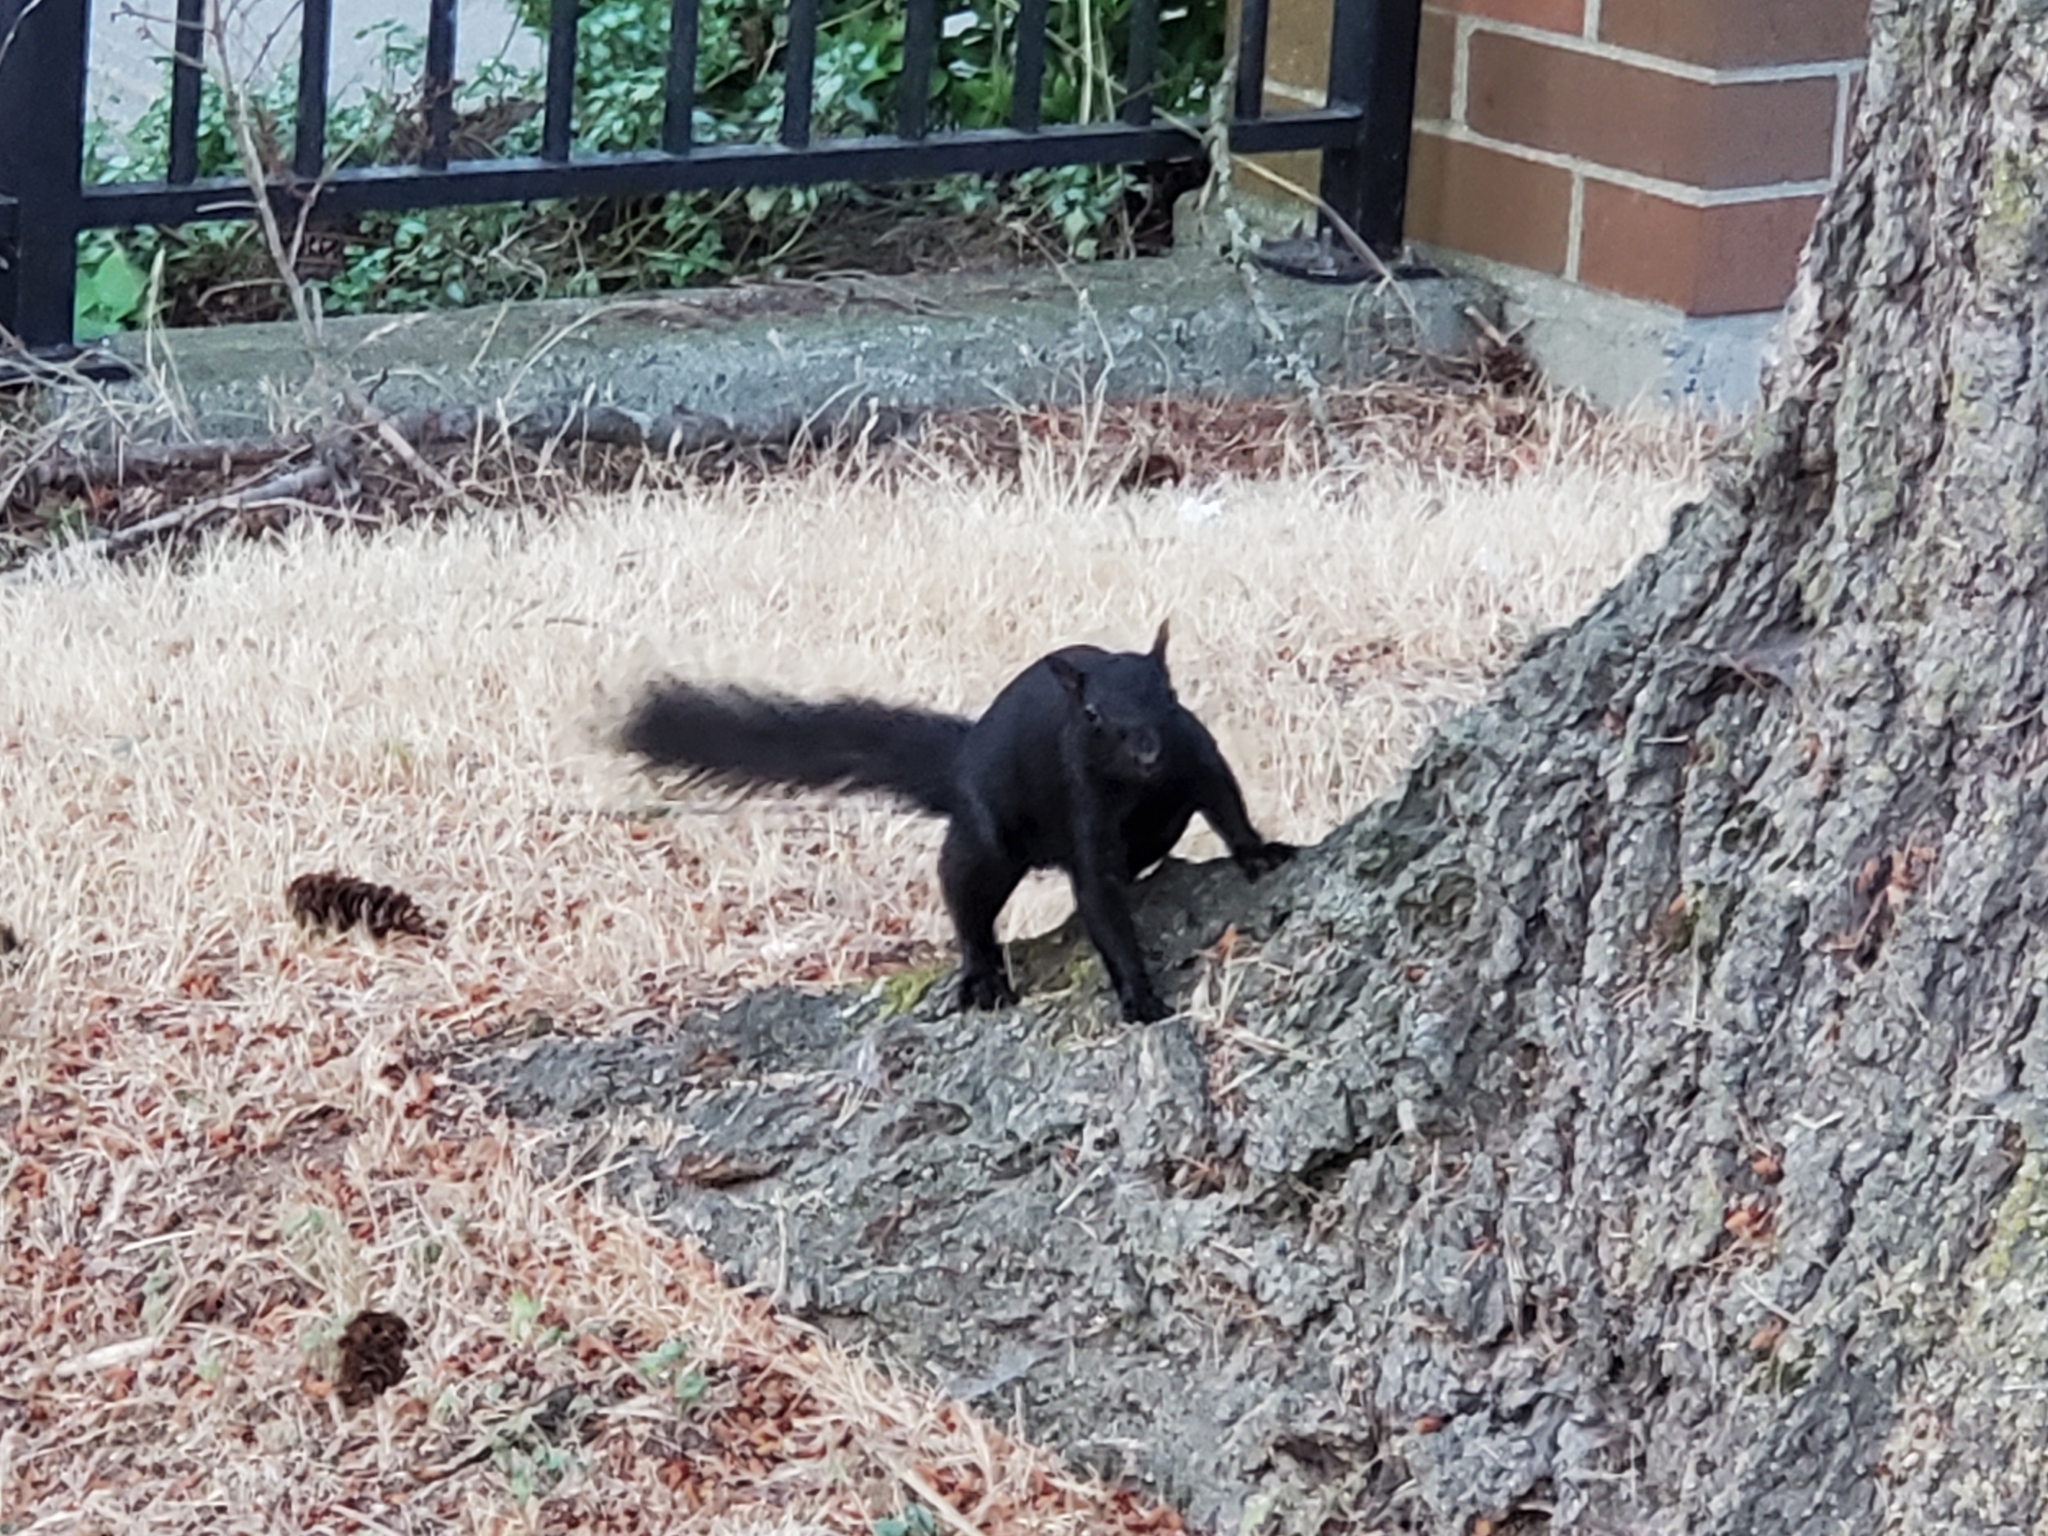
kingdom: Animalia
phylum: Chordata
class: Mammalia
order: Rodentia
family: Sciuridae
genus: Sciurus
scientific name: Sciurus carolinensis
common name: Eastern gray squirrel
